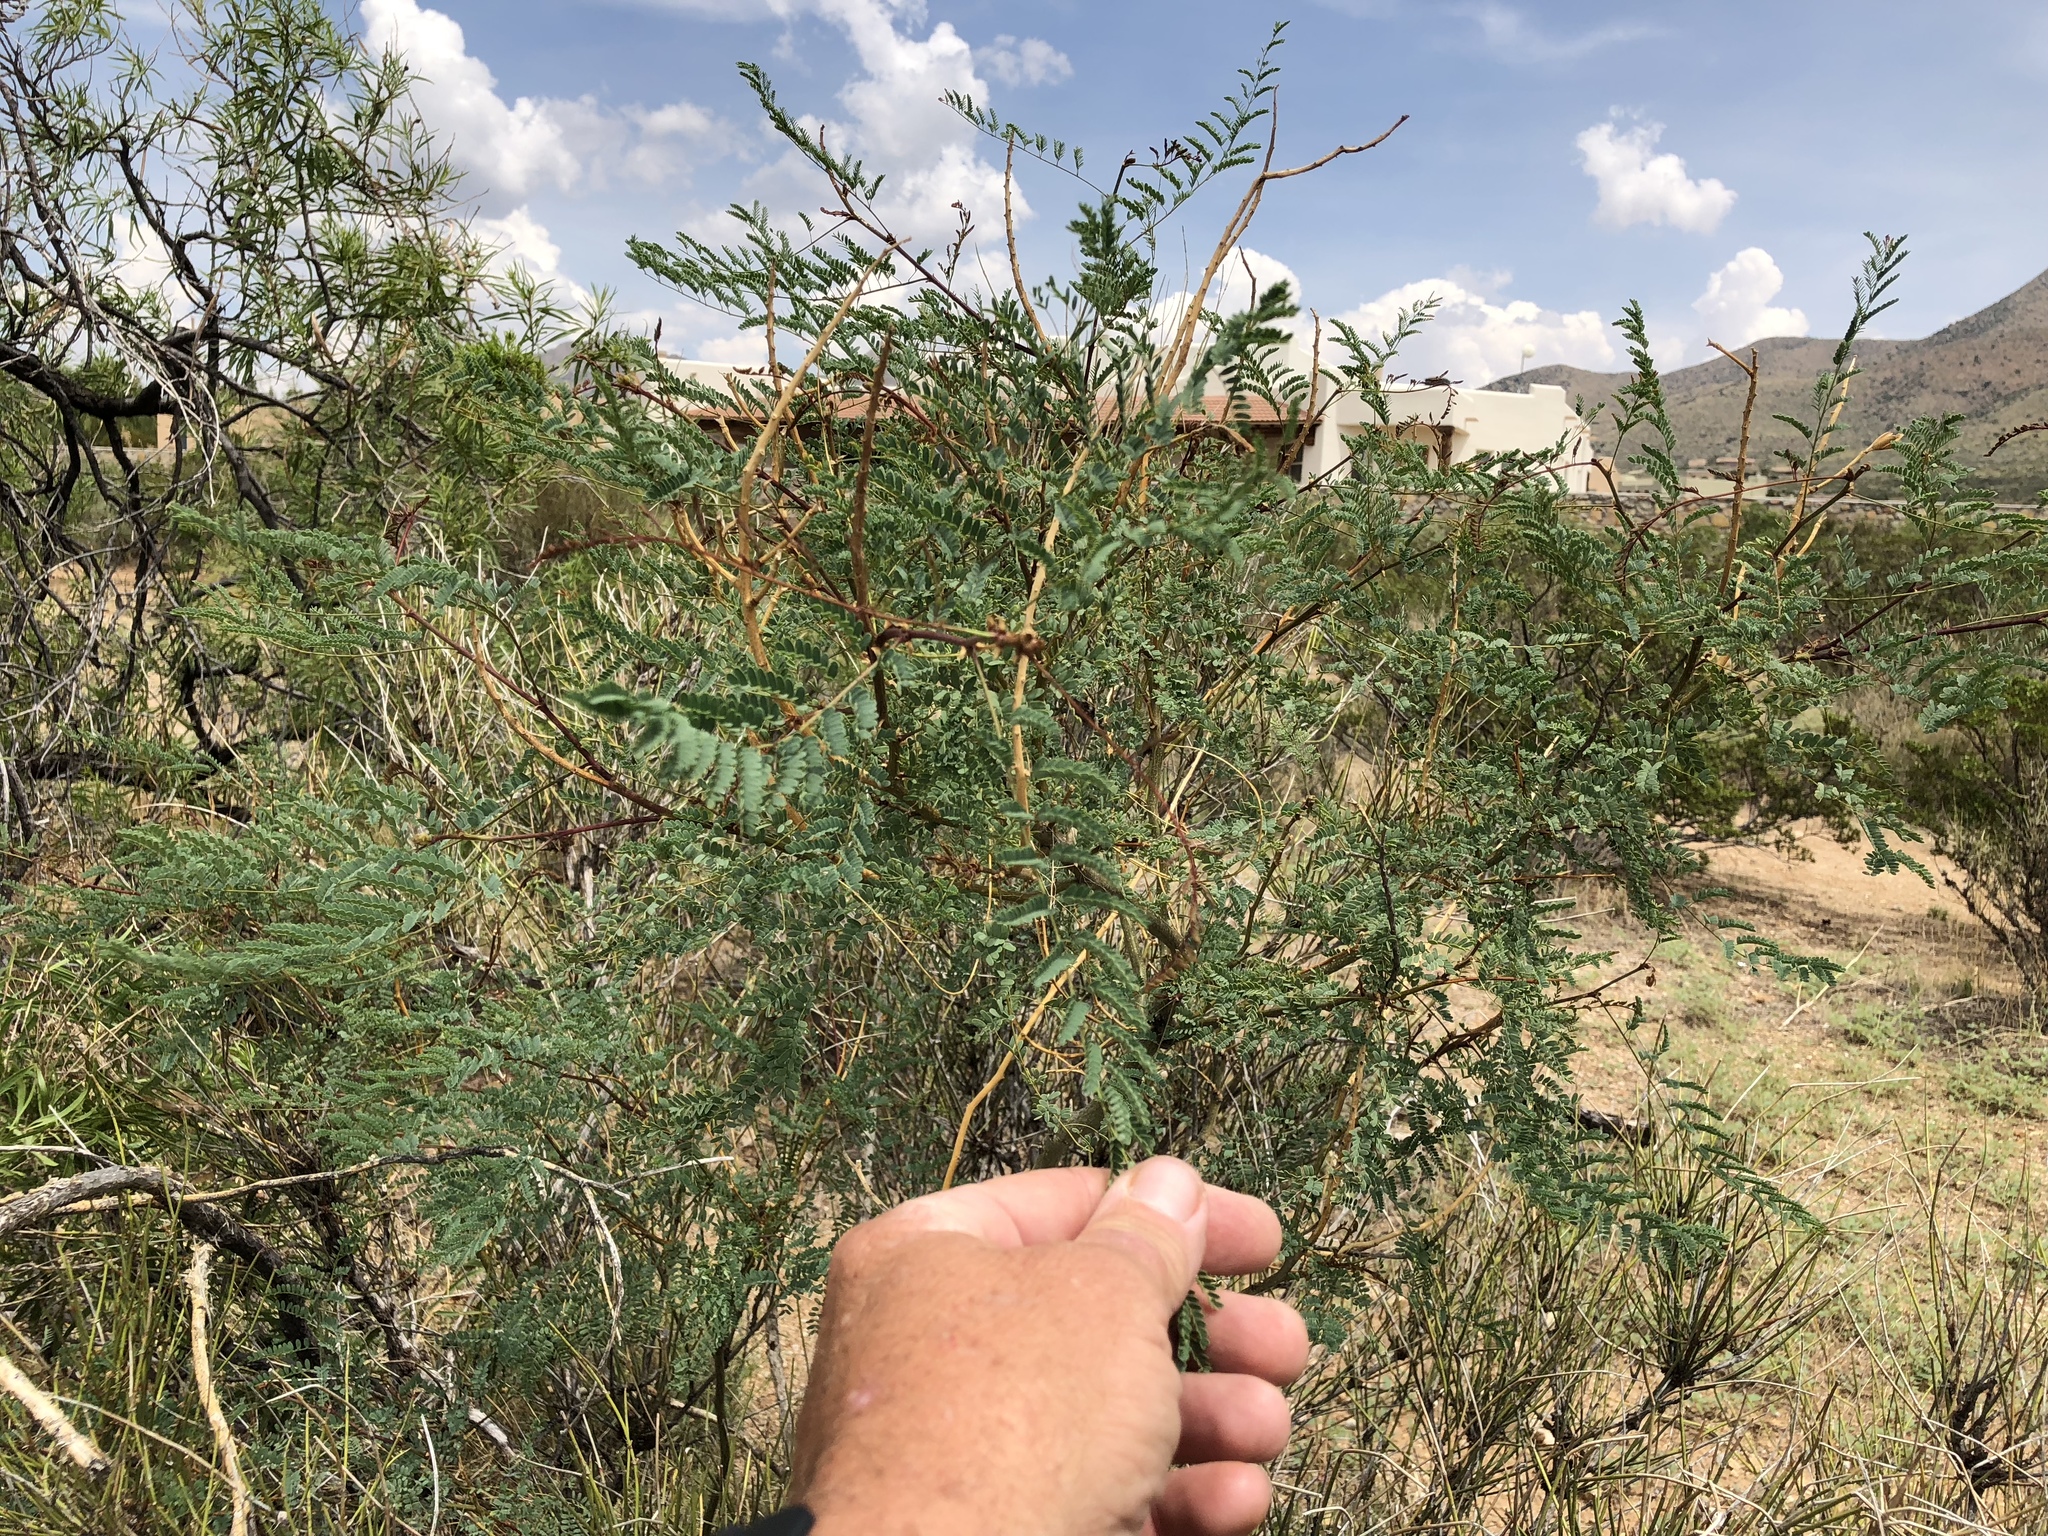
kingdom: Plantae
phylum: Tracheophyta
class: Magnoliopsida
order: Fabales
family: Fabaceae
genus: Prosopis
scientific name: Prosopis glandulosa
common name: Honey mesquite
